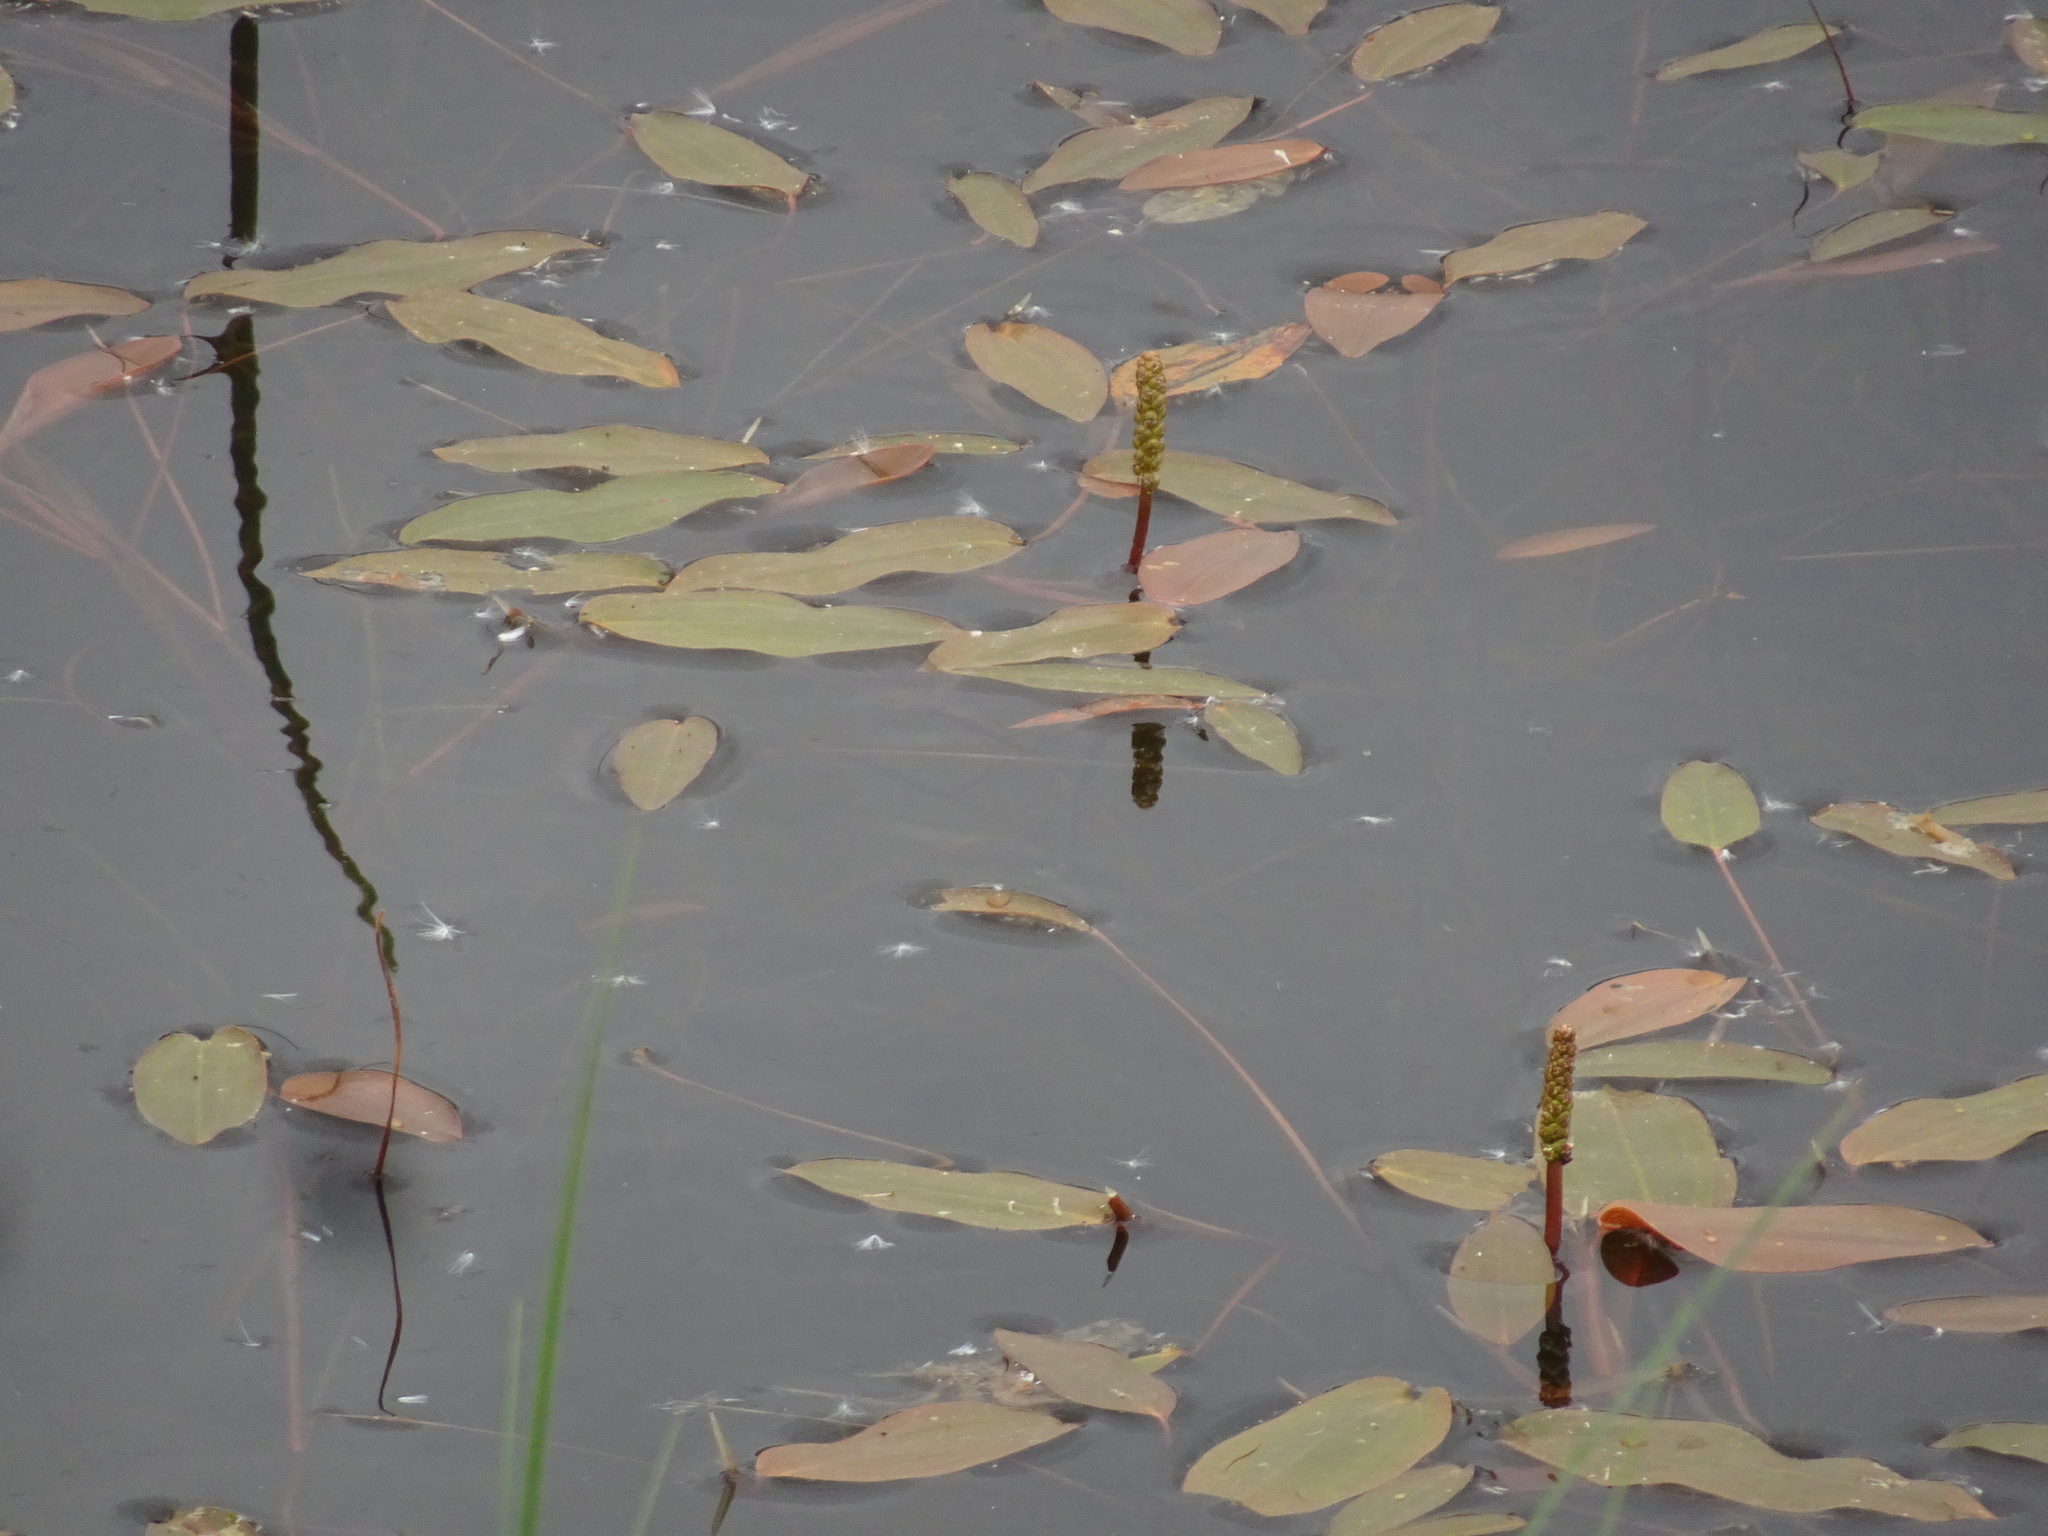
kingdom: Plantae
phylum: Tracheophyta
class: Liliopsida
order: Alismatales
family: Potamogetonaceae
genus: Potamogeton
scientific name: Potamogeton natans
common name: Broad-leaved pondweed
